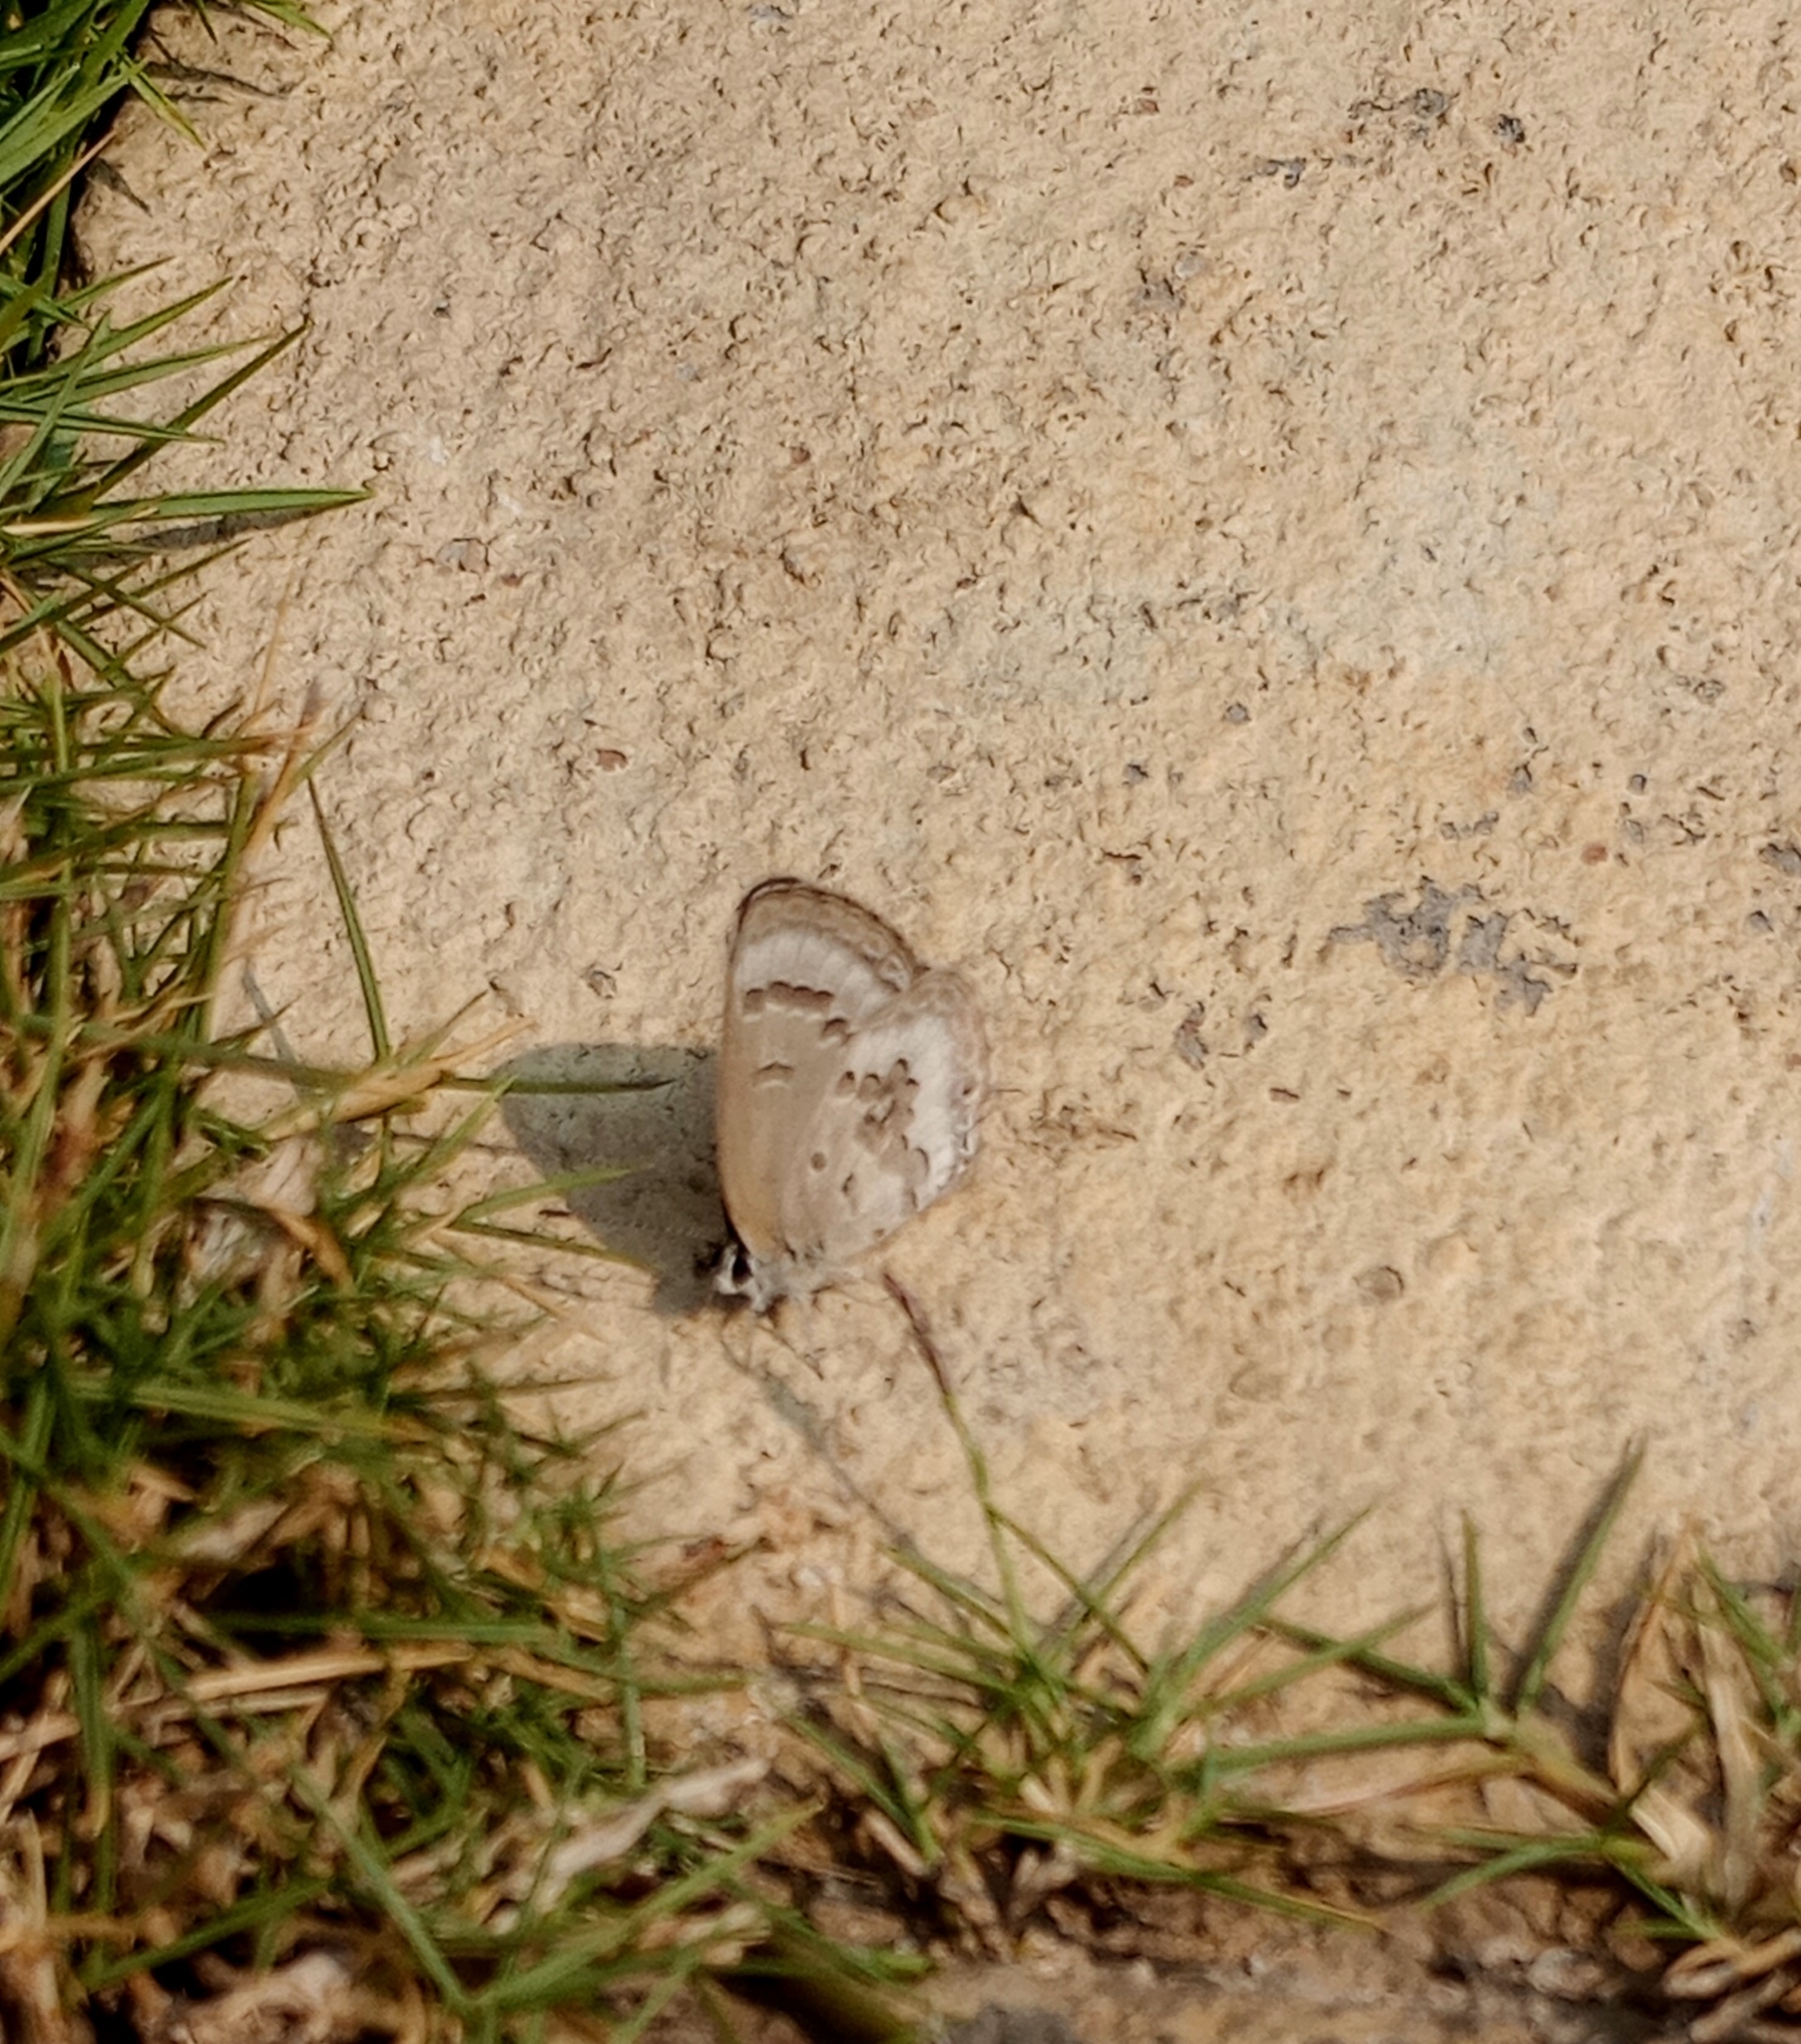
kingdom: Animalia
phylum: Arthropoda
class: Insecta
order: Lepidoptera
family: Lycaenidae
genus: Luthrodes
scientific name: Luthrodes pandava
